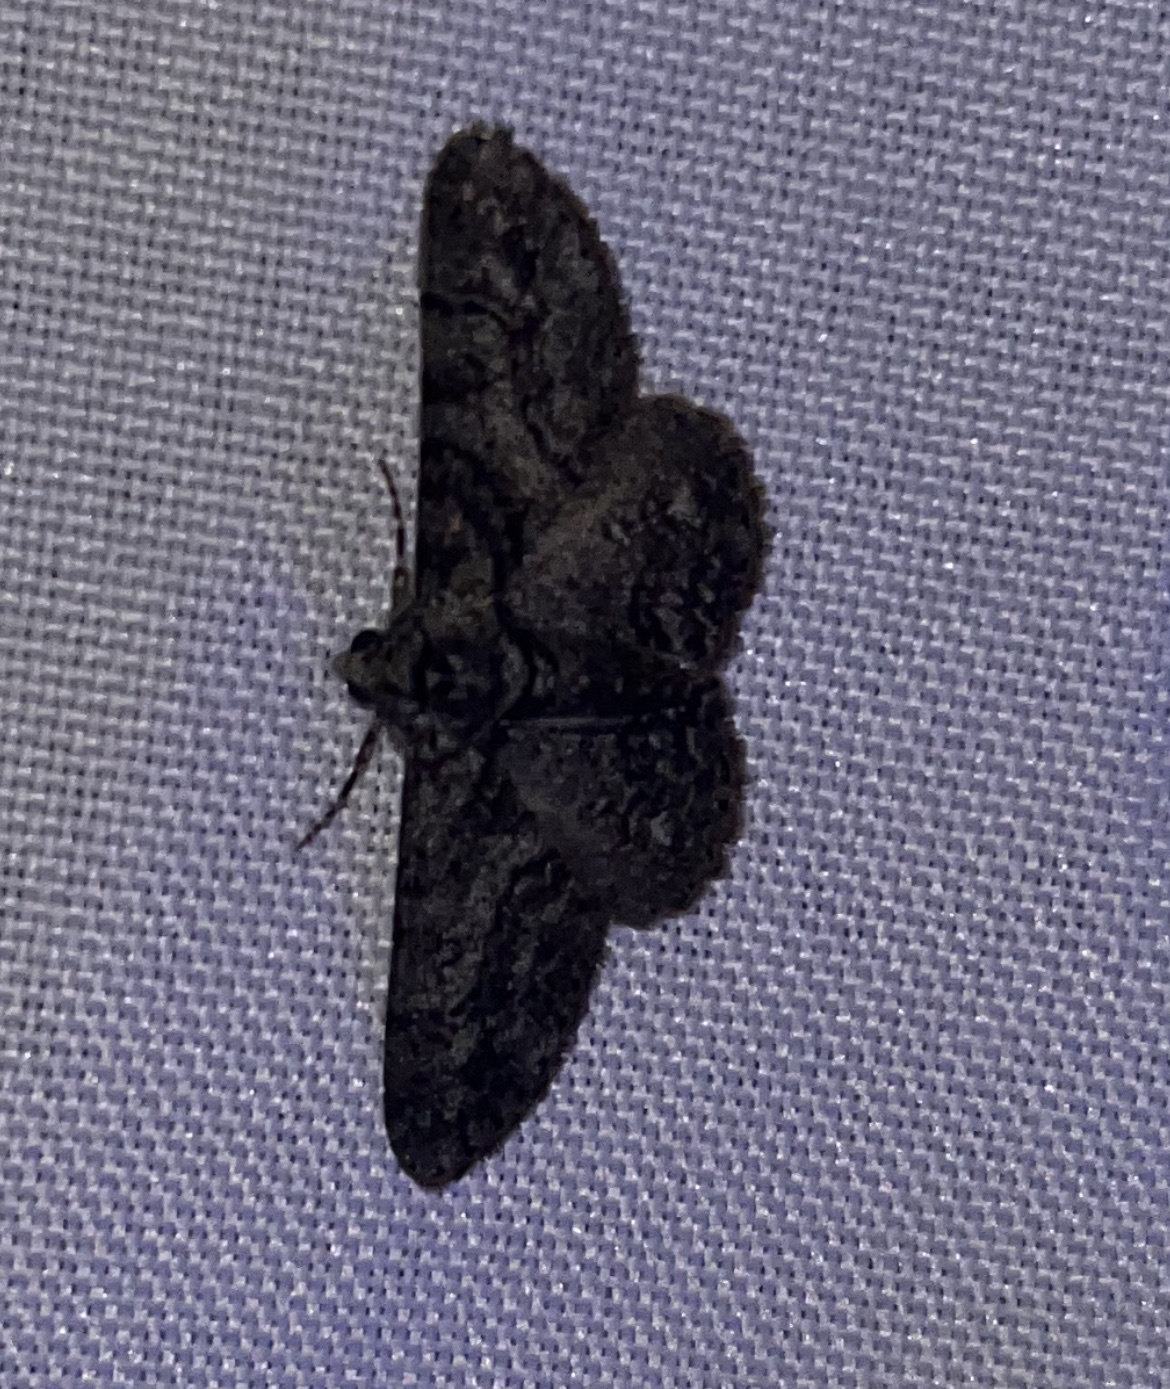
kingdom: Animalia
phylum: Arthropoda
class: Insecta
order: Lepidoptera
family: Geometridae
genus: Cleora
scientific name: Cleora sublunaria
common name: Double-lined gray
